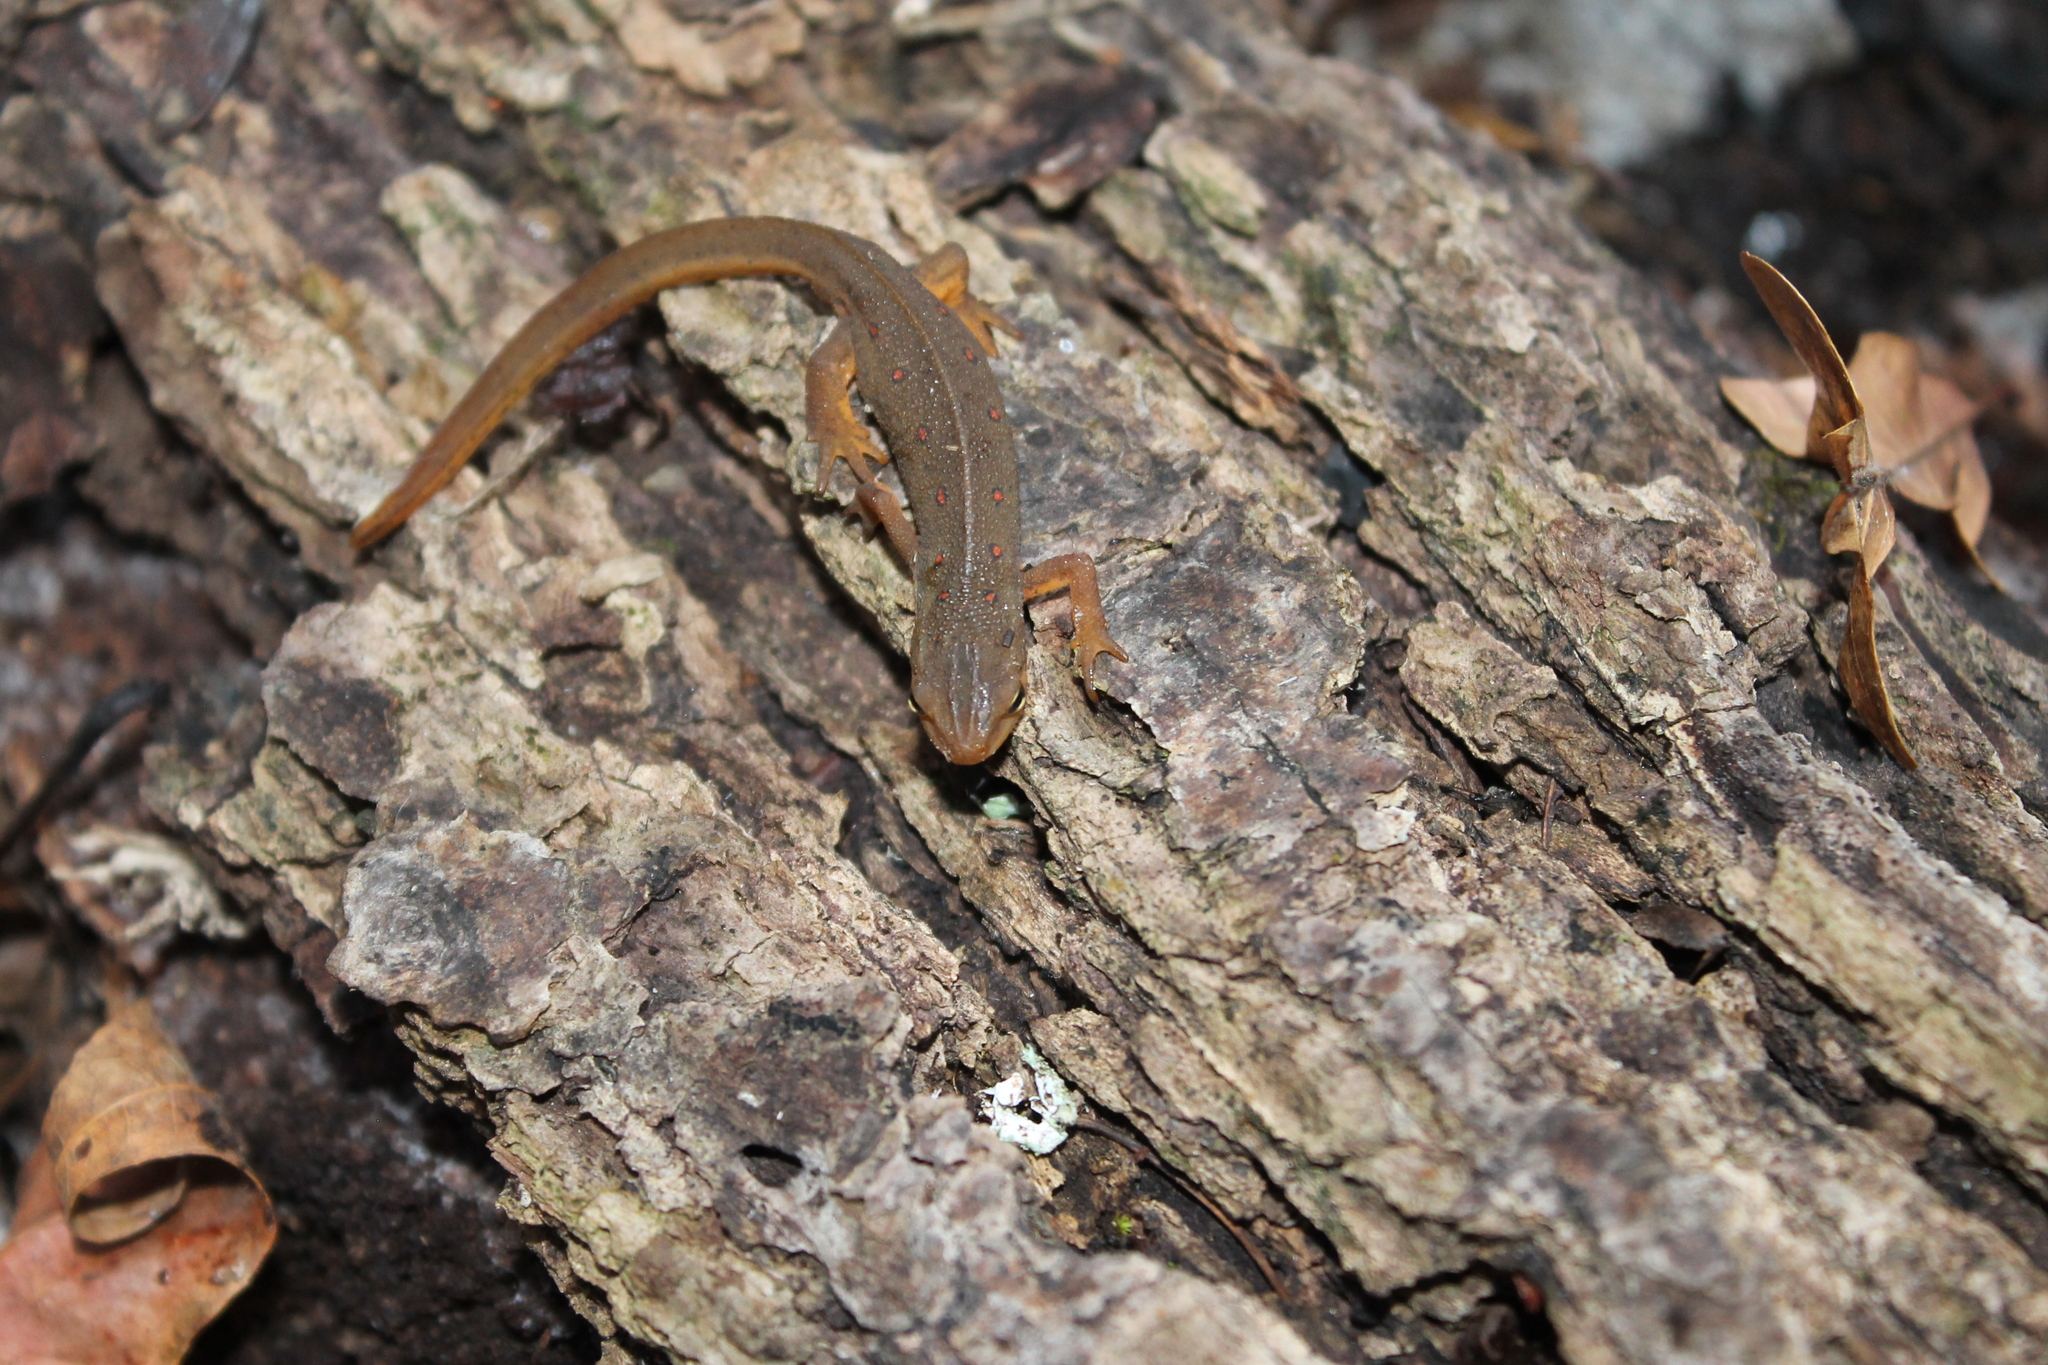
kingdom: Animalia
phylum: Chordata
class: Amphibia
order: Caudata
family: Salamandridae
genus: Notophthalmus
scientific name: Notophthalmus viridescens
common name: Eastern newt
